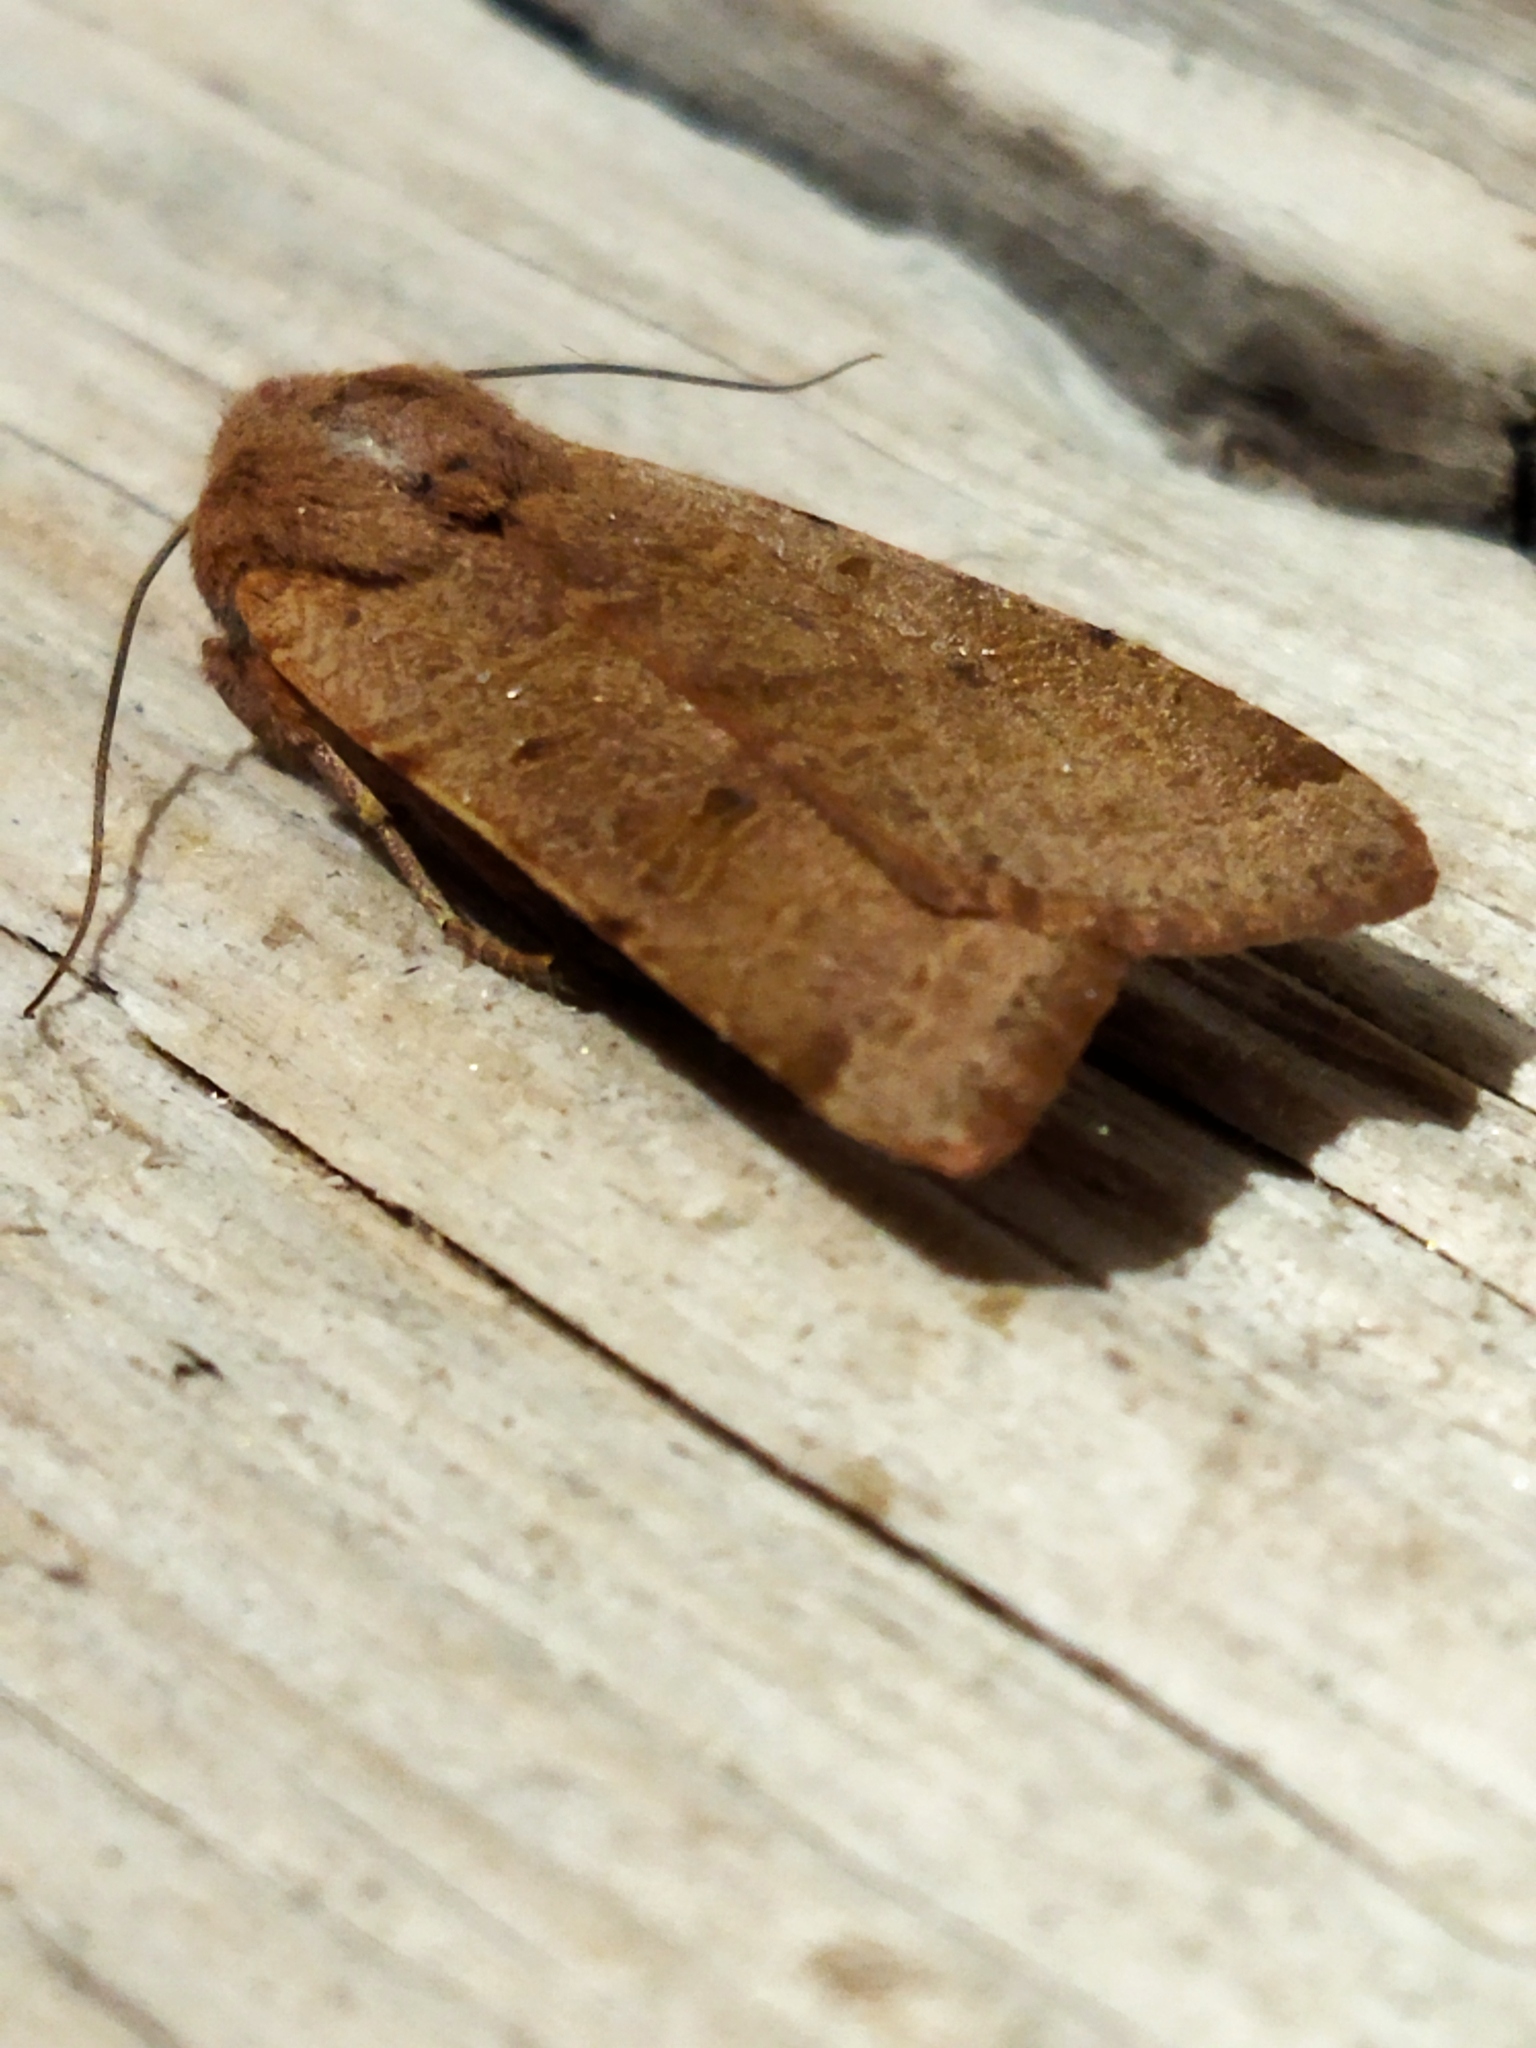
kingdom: Animalia
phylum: Arthropoda
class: Insecta
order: Lepidoptera
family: Noctuidae
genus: Agrochola
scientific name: Agrochola lychnidis
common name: Beaded chestnut
